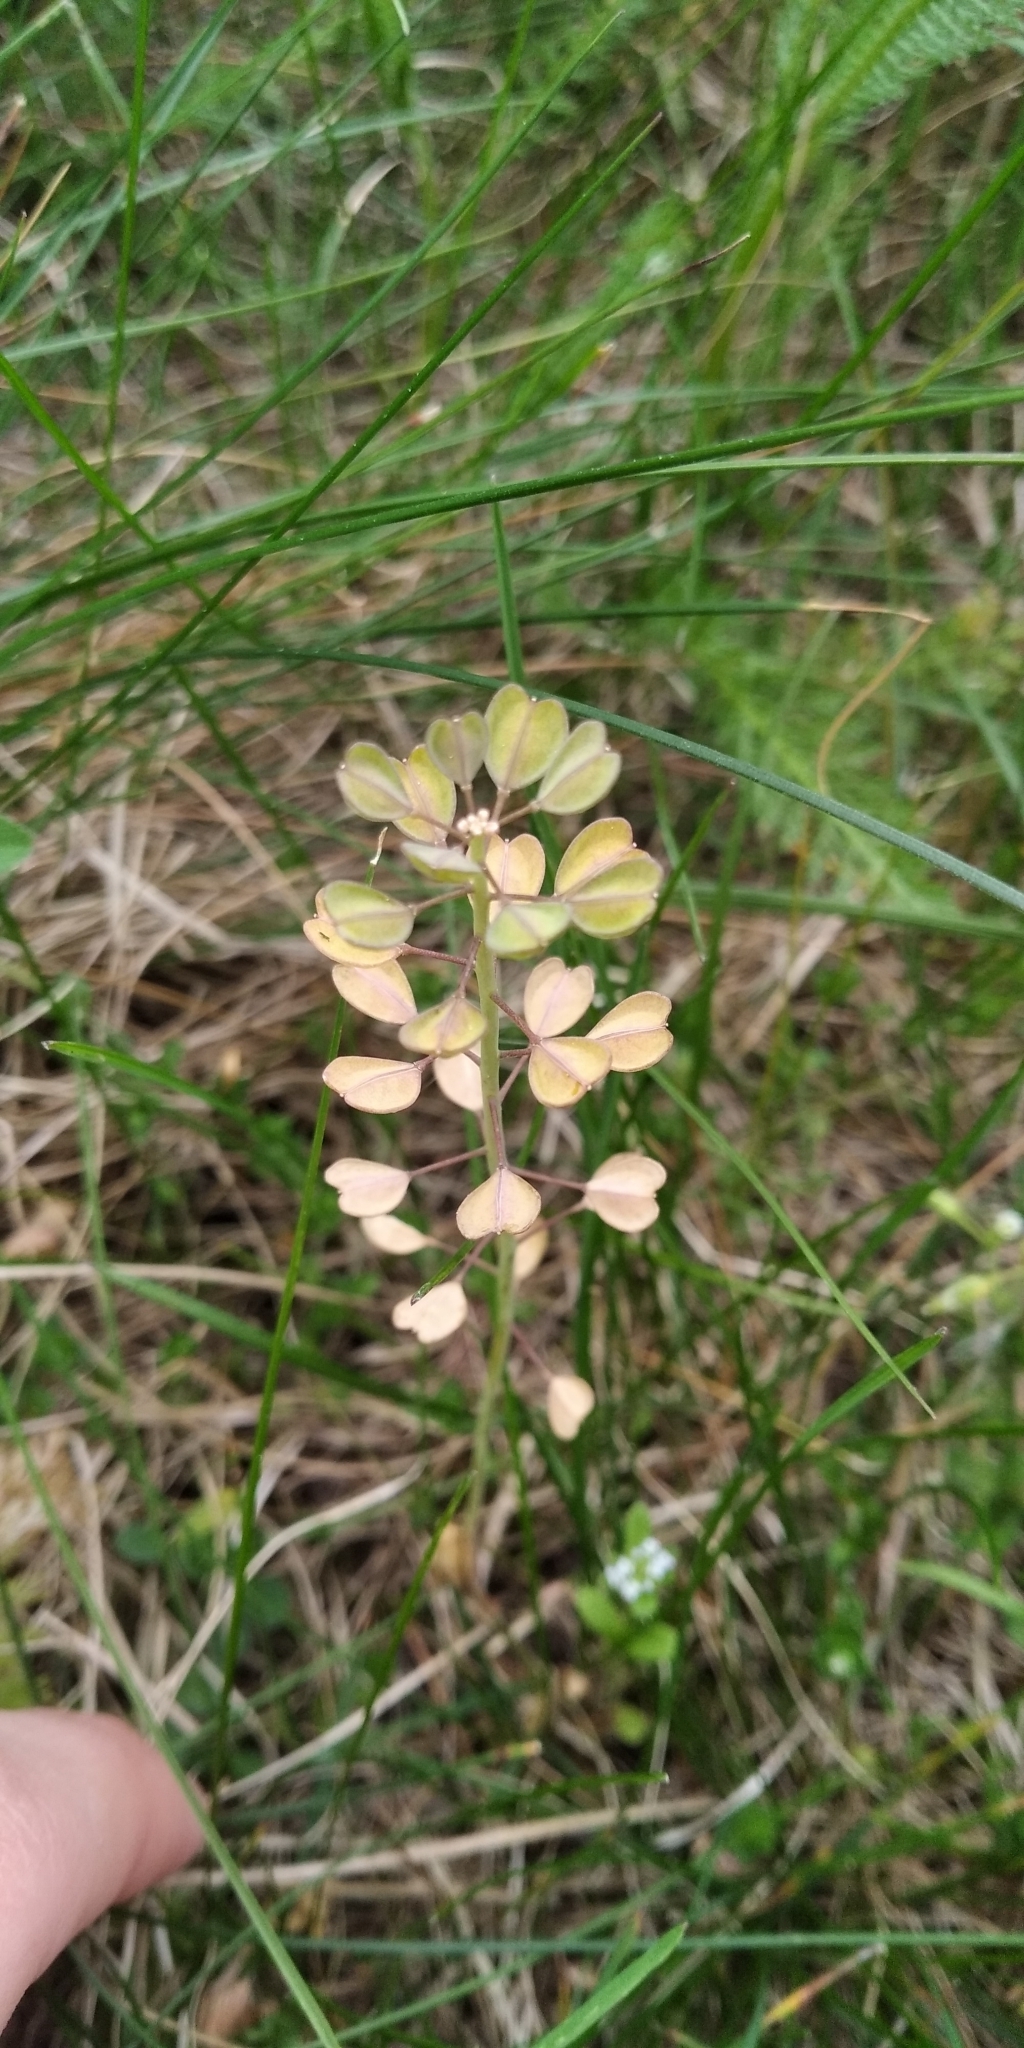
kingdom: Plantae
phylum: Tracheophyta
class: Magnoliopsida
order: Brassicales
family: Brassicaceae
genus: Noccaea
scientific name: Noccaea perfoliata
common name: Perfoliate pennycress
